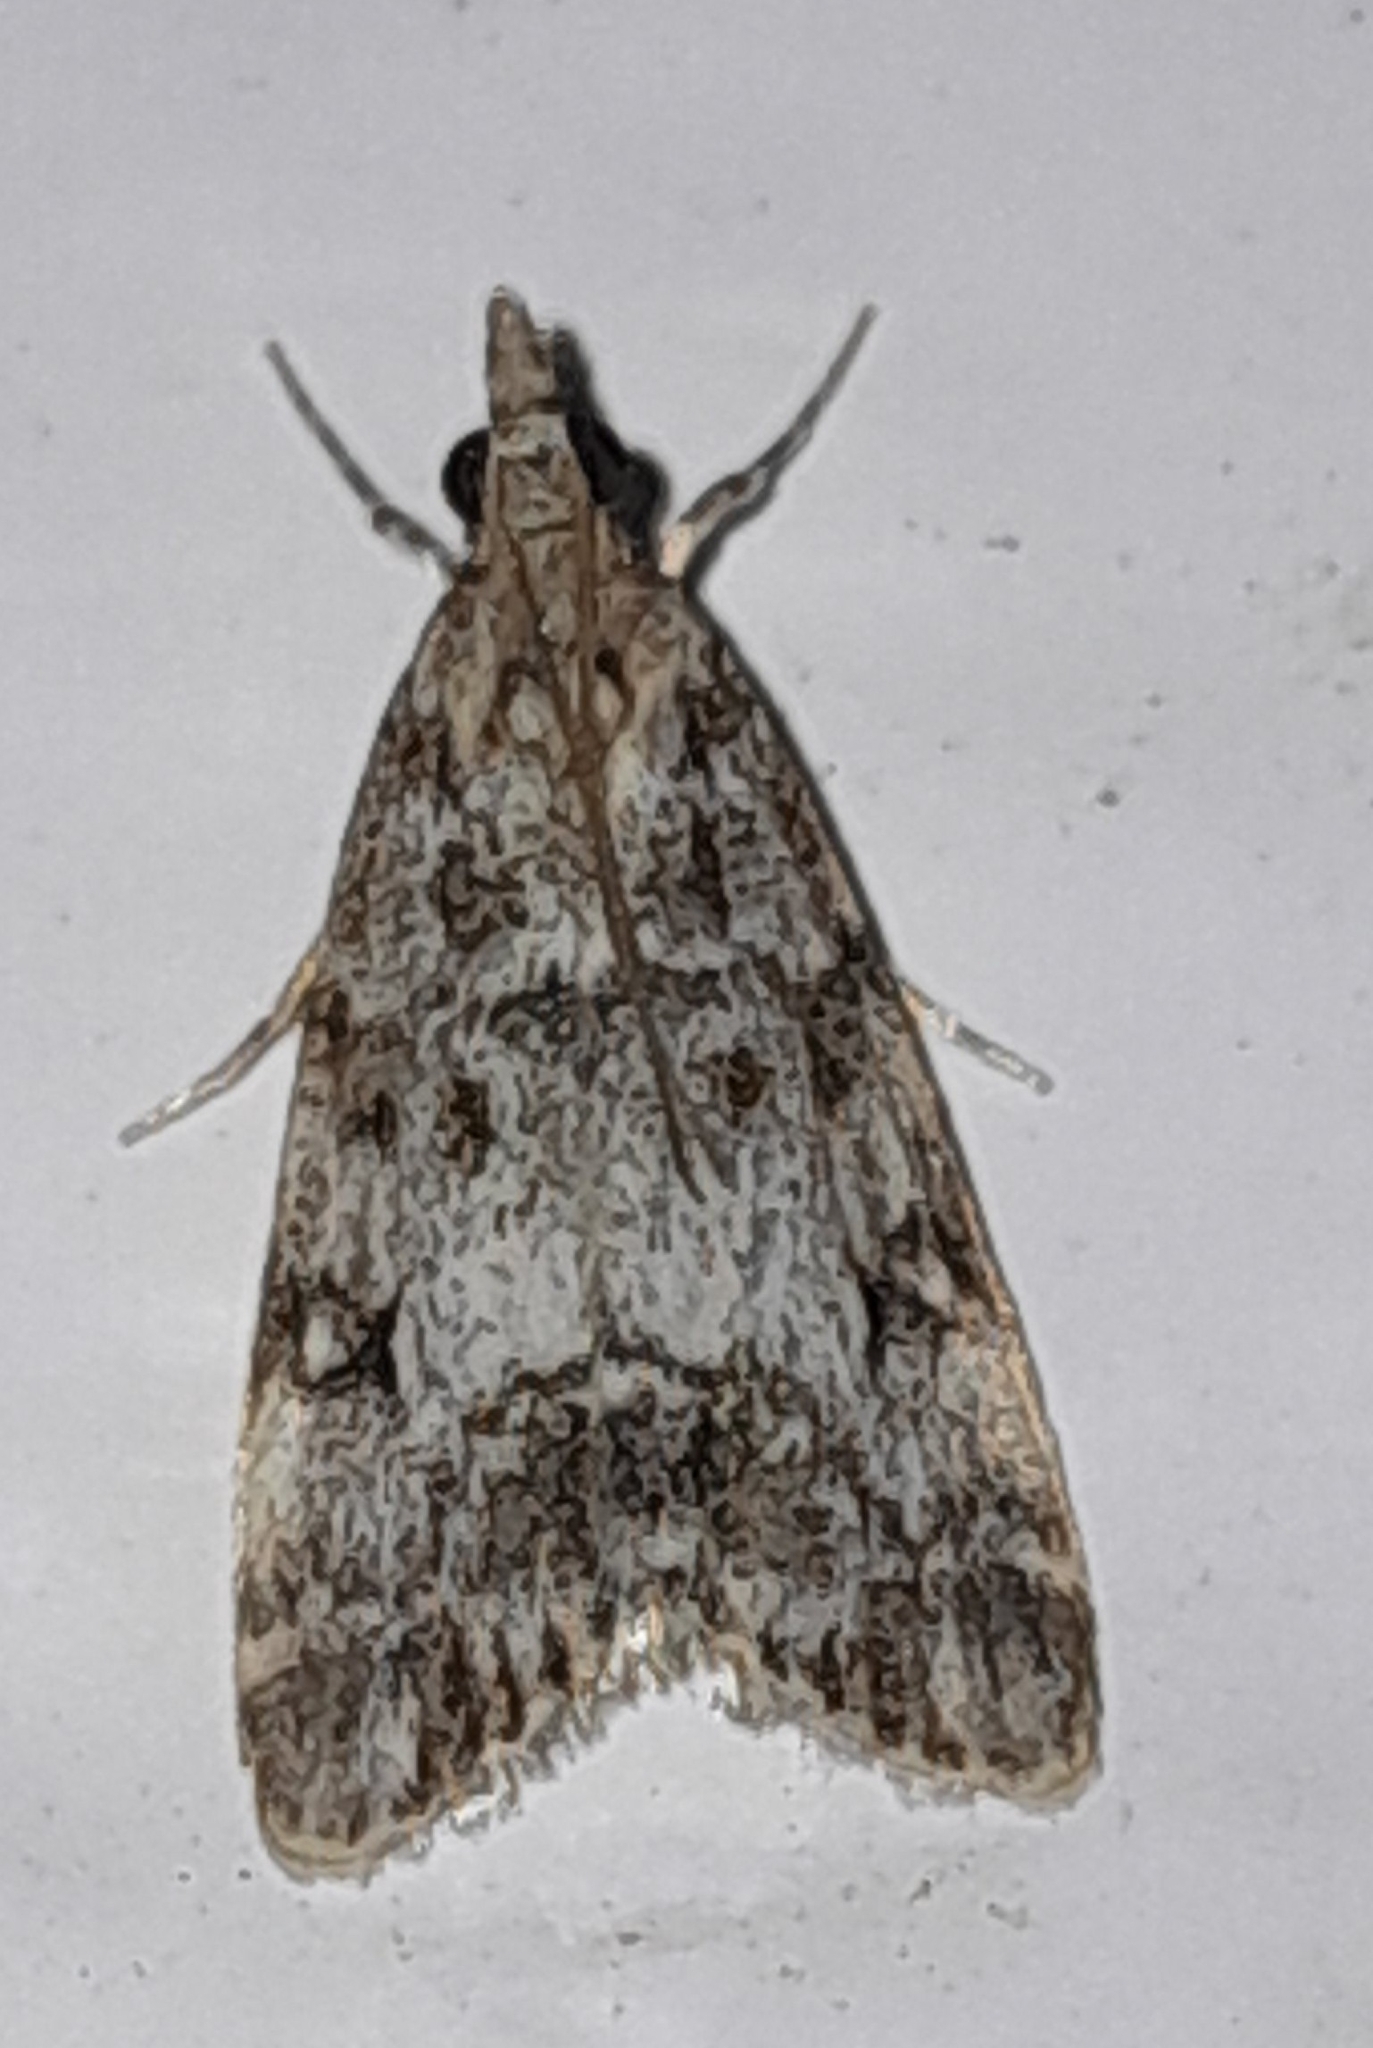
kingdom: Animalia
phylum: Arthropoda
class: Insecta
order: Lepidoptera
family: Crambidae
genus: Eudonia
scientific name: Eudonia lacustrata
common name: Little grey
